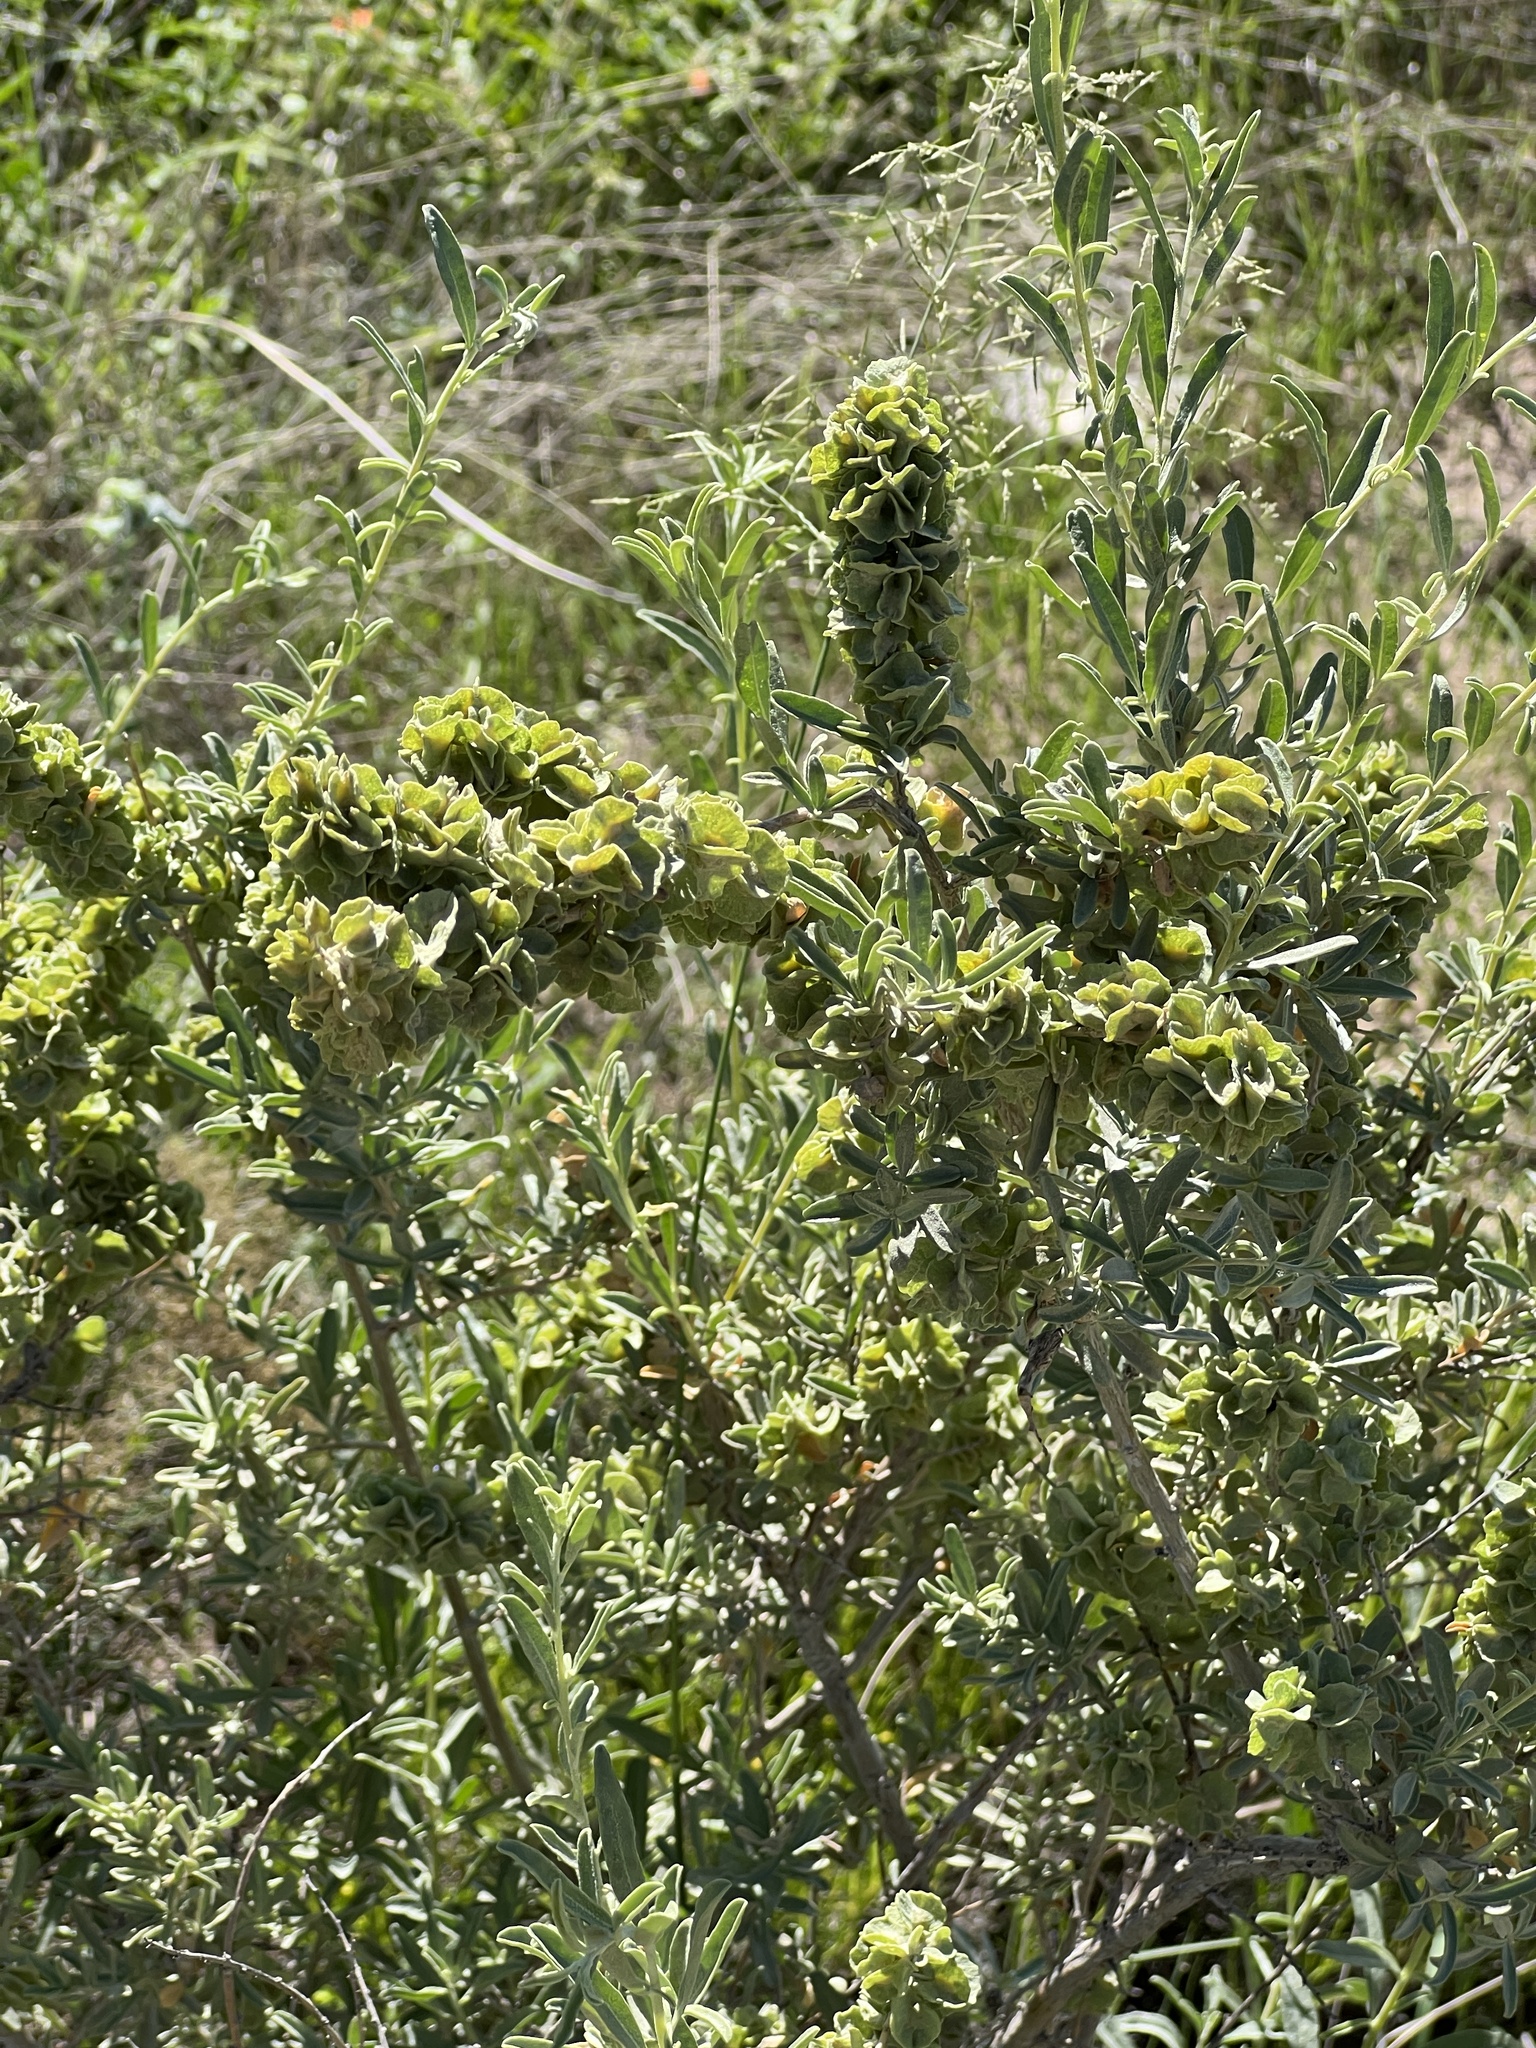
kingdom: Plantae
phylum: Tracheophyta
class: Magnoliopsida
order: Caryophyllales
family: Amaranthaceae
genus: Atriplex
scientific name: Atriplex canescens
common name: Four-wing saltbush
